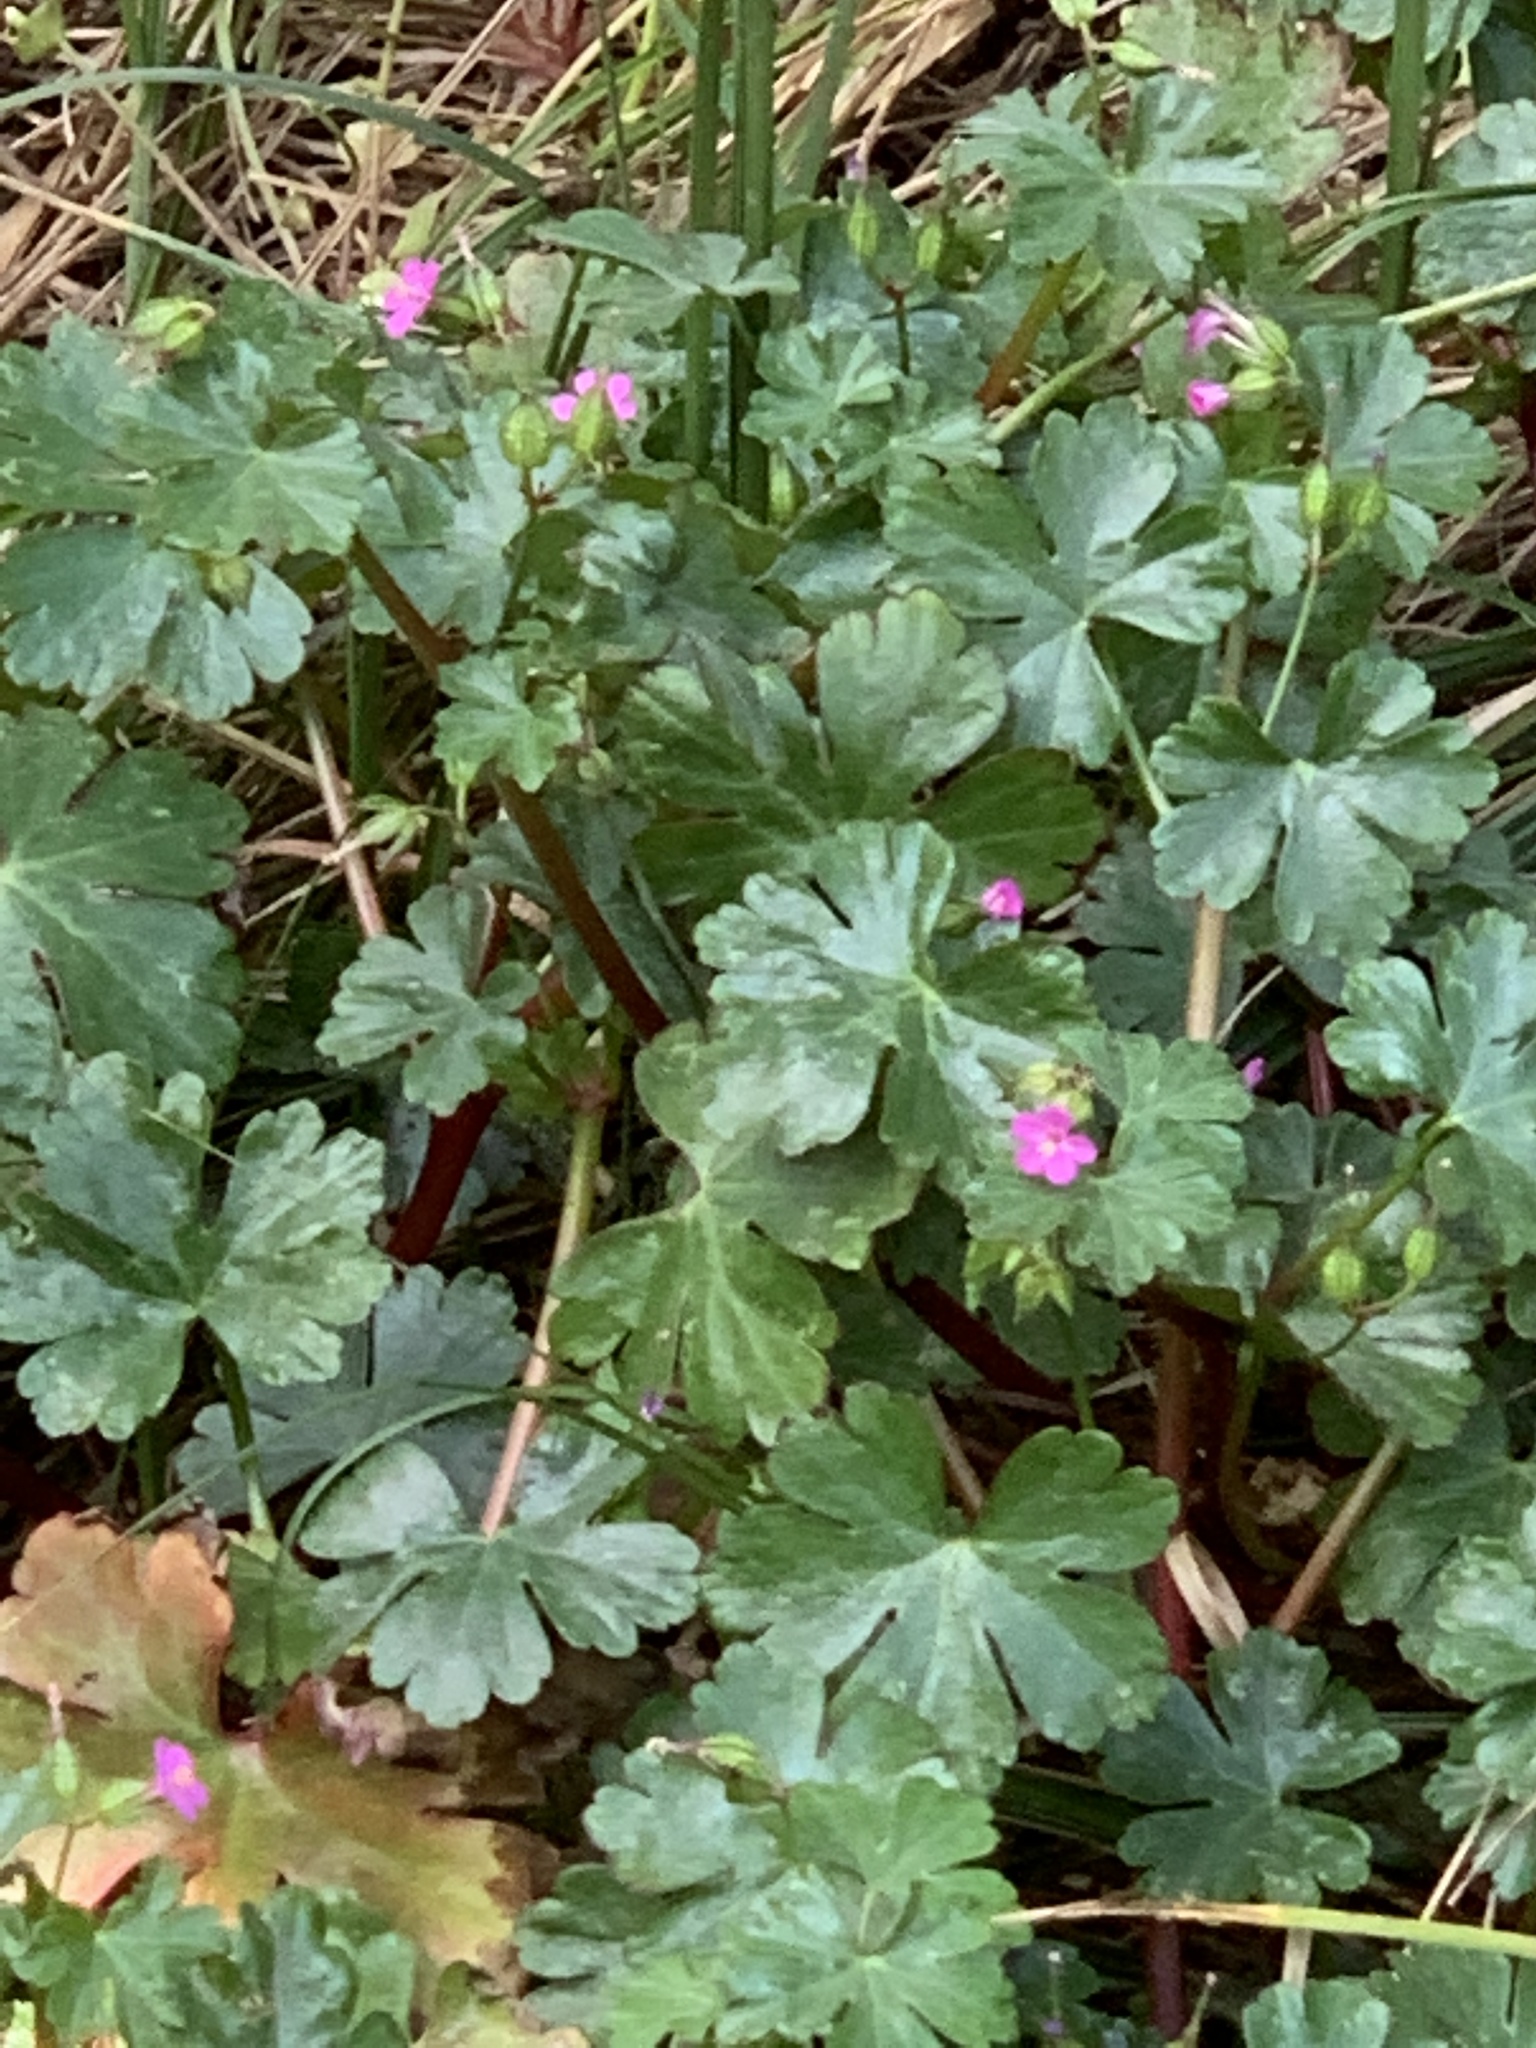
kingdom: Plantae
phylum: Tracheophyta
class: Magnoliopsida
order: Geraniales
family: Geraniaceae
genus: Geranium
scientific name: Geranium lucidum
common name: Shining crane's-bill
